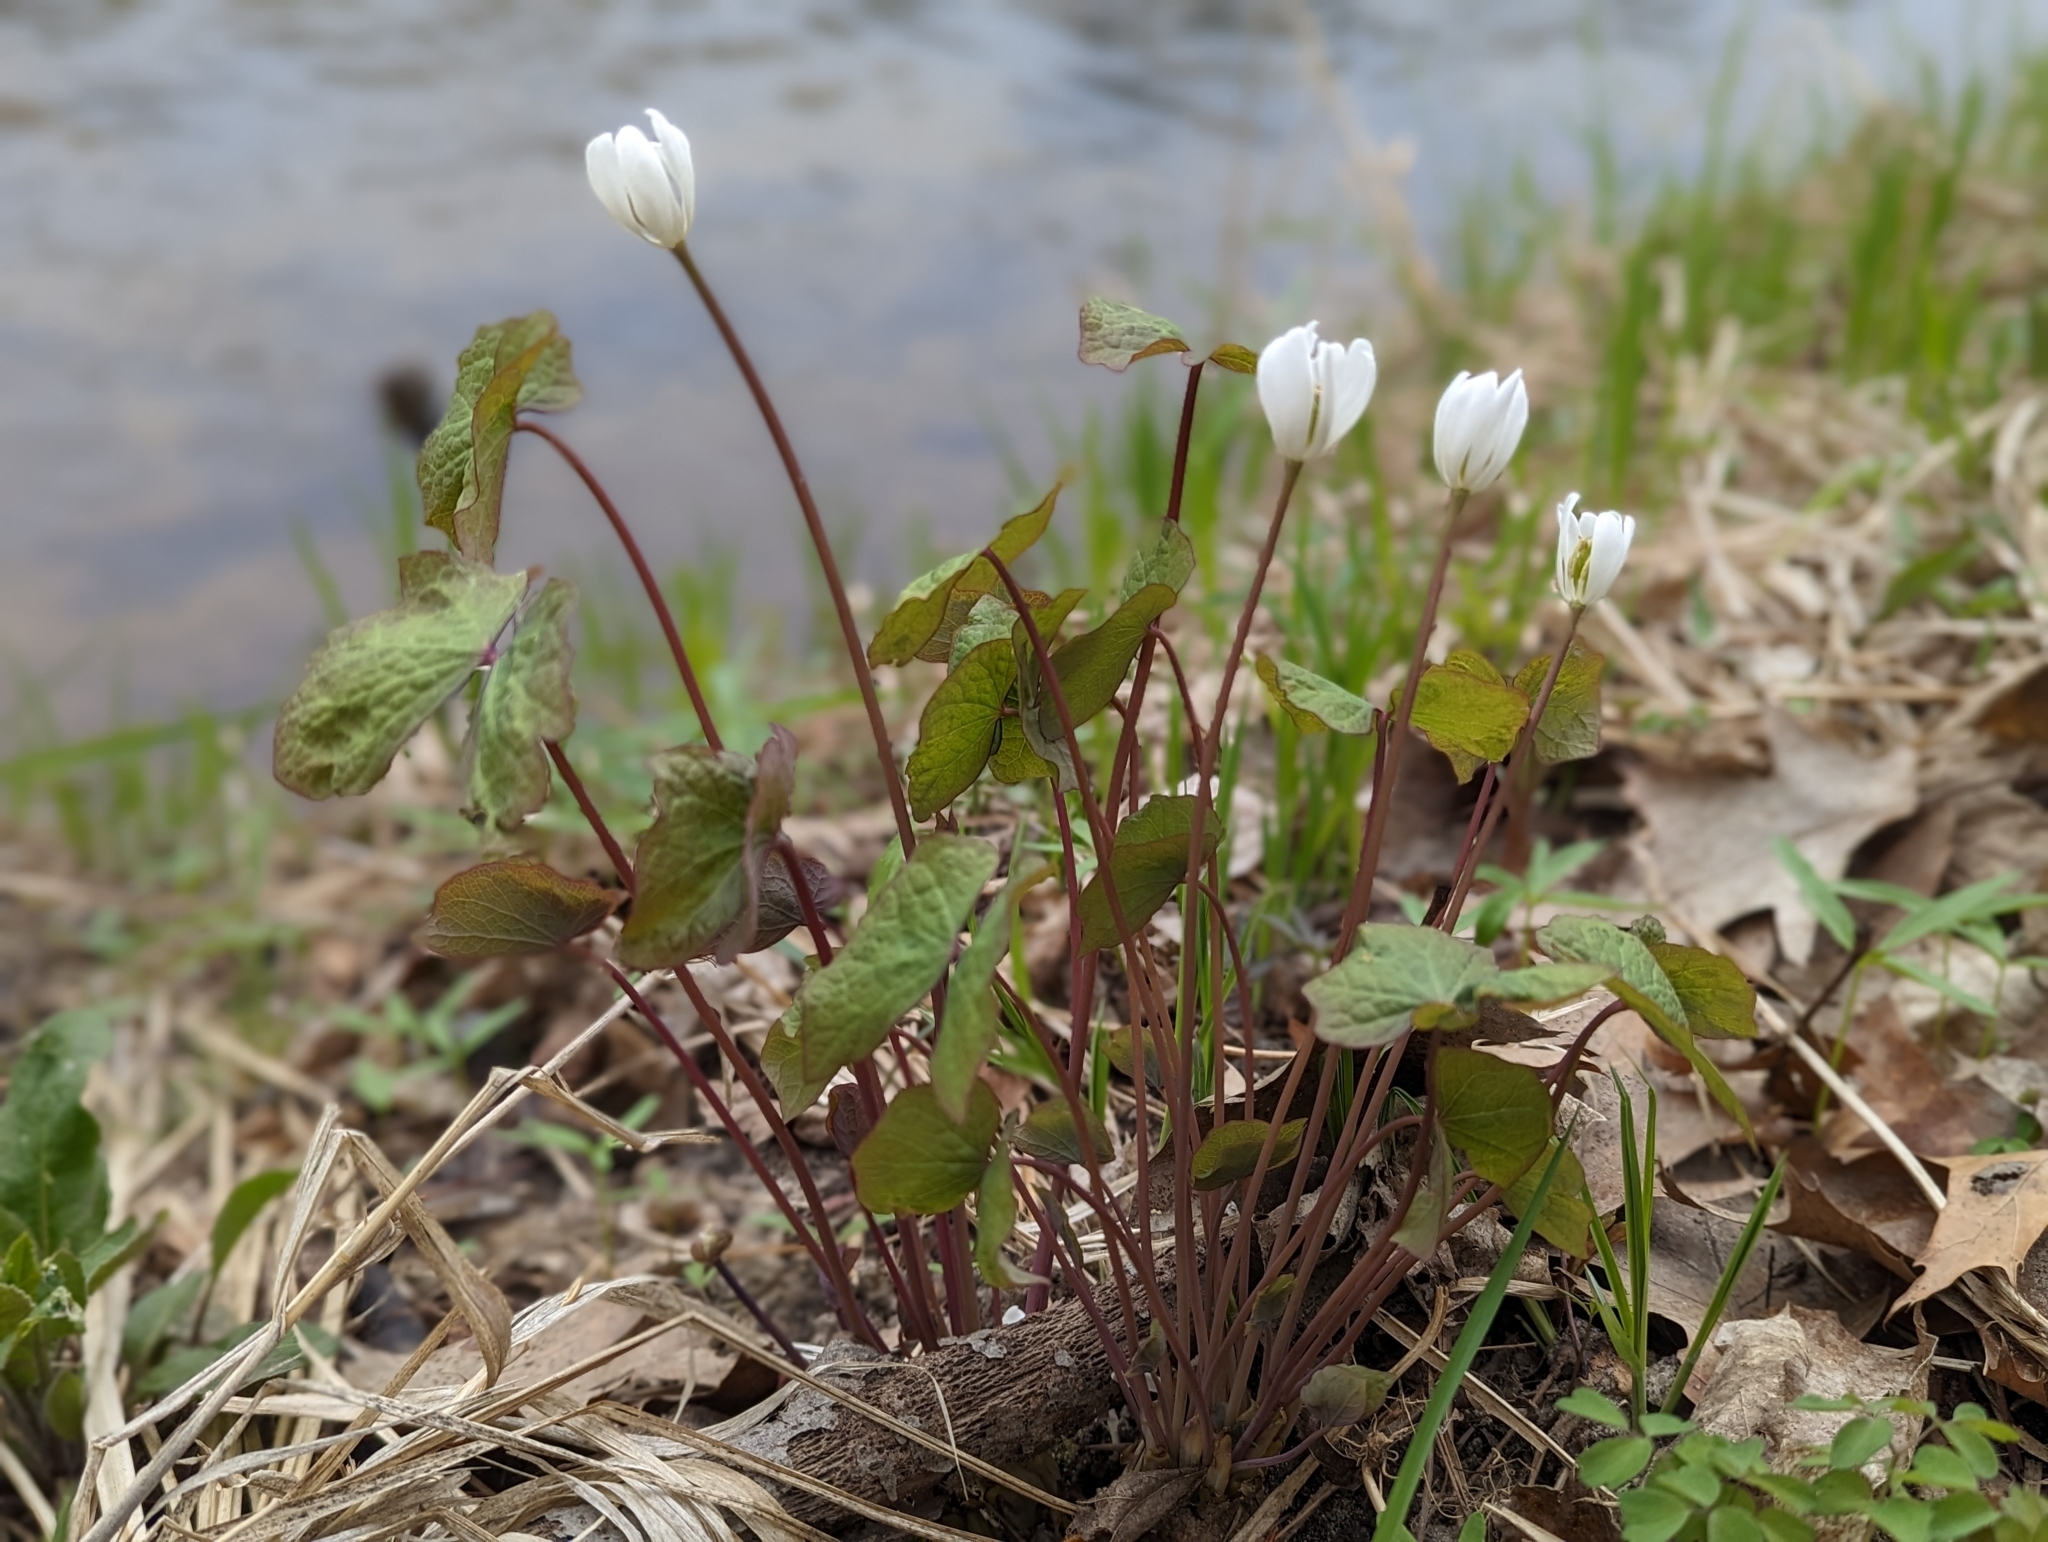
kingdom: Plantae
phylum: Tracheophyta
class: Magnoliopsida
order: Ranunculales
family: Berberidaceae
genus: Jeffersonia
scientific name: Jeffersonia diphylla
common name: Rheumatism-root
